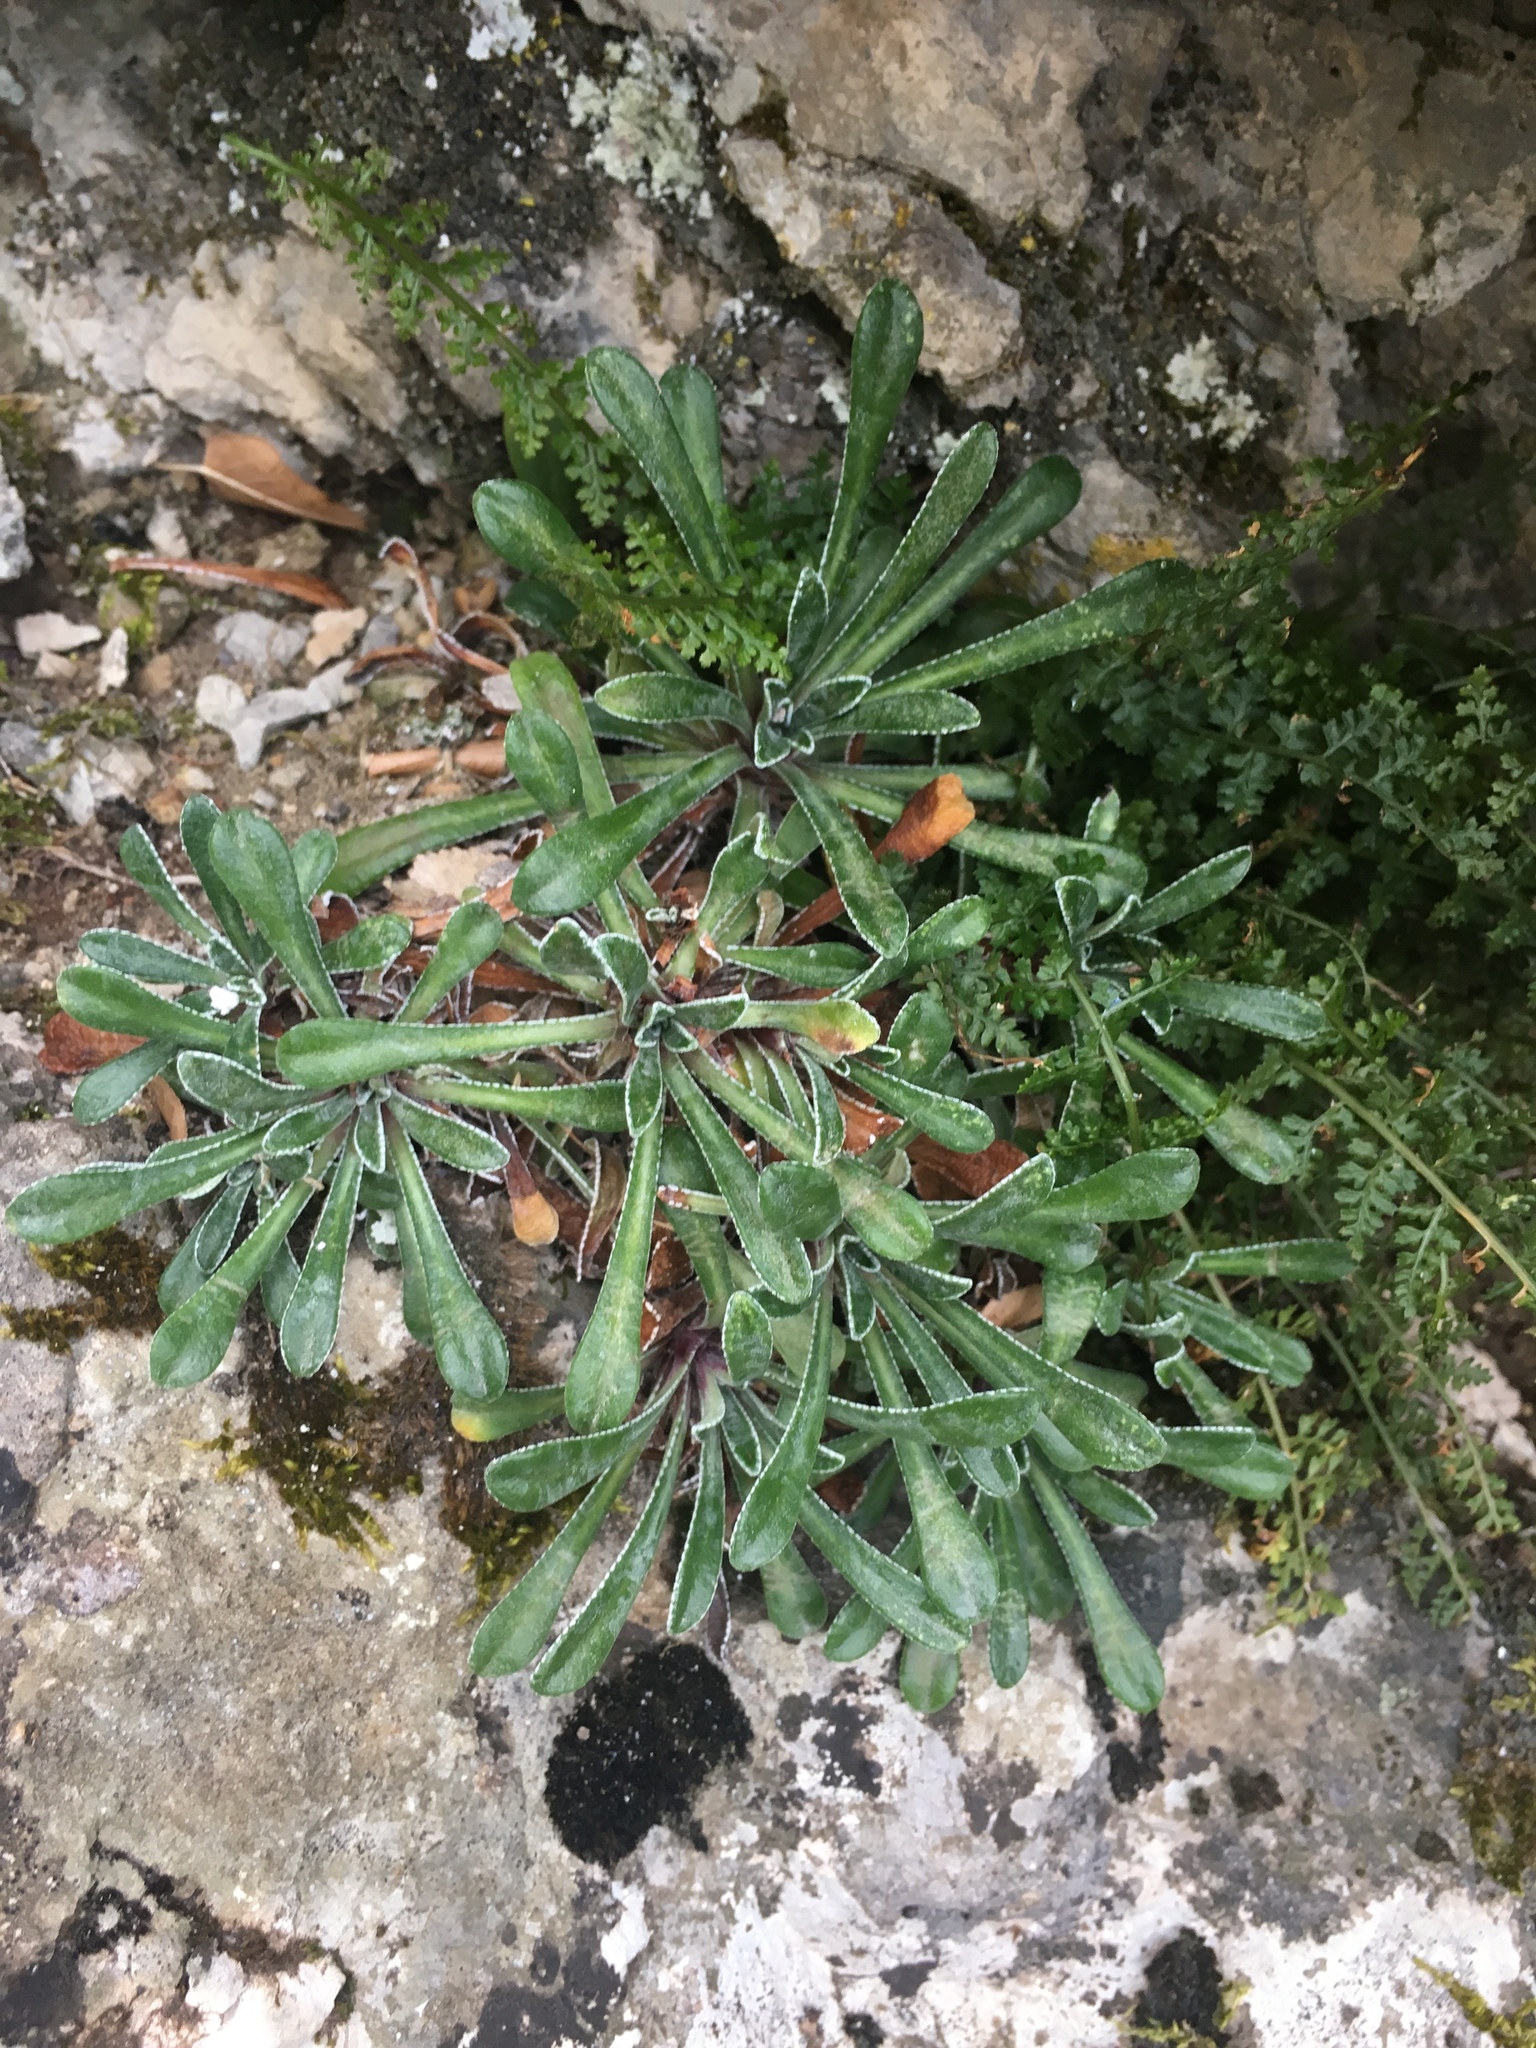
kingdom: Plantae
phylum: Tracheophyta
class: Magnoliopsida
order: Saxifragales
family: Saxifragaceae
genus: Saxifraga
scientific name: Saxifraga callosa
